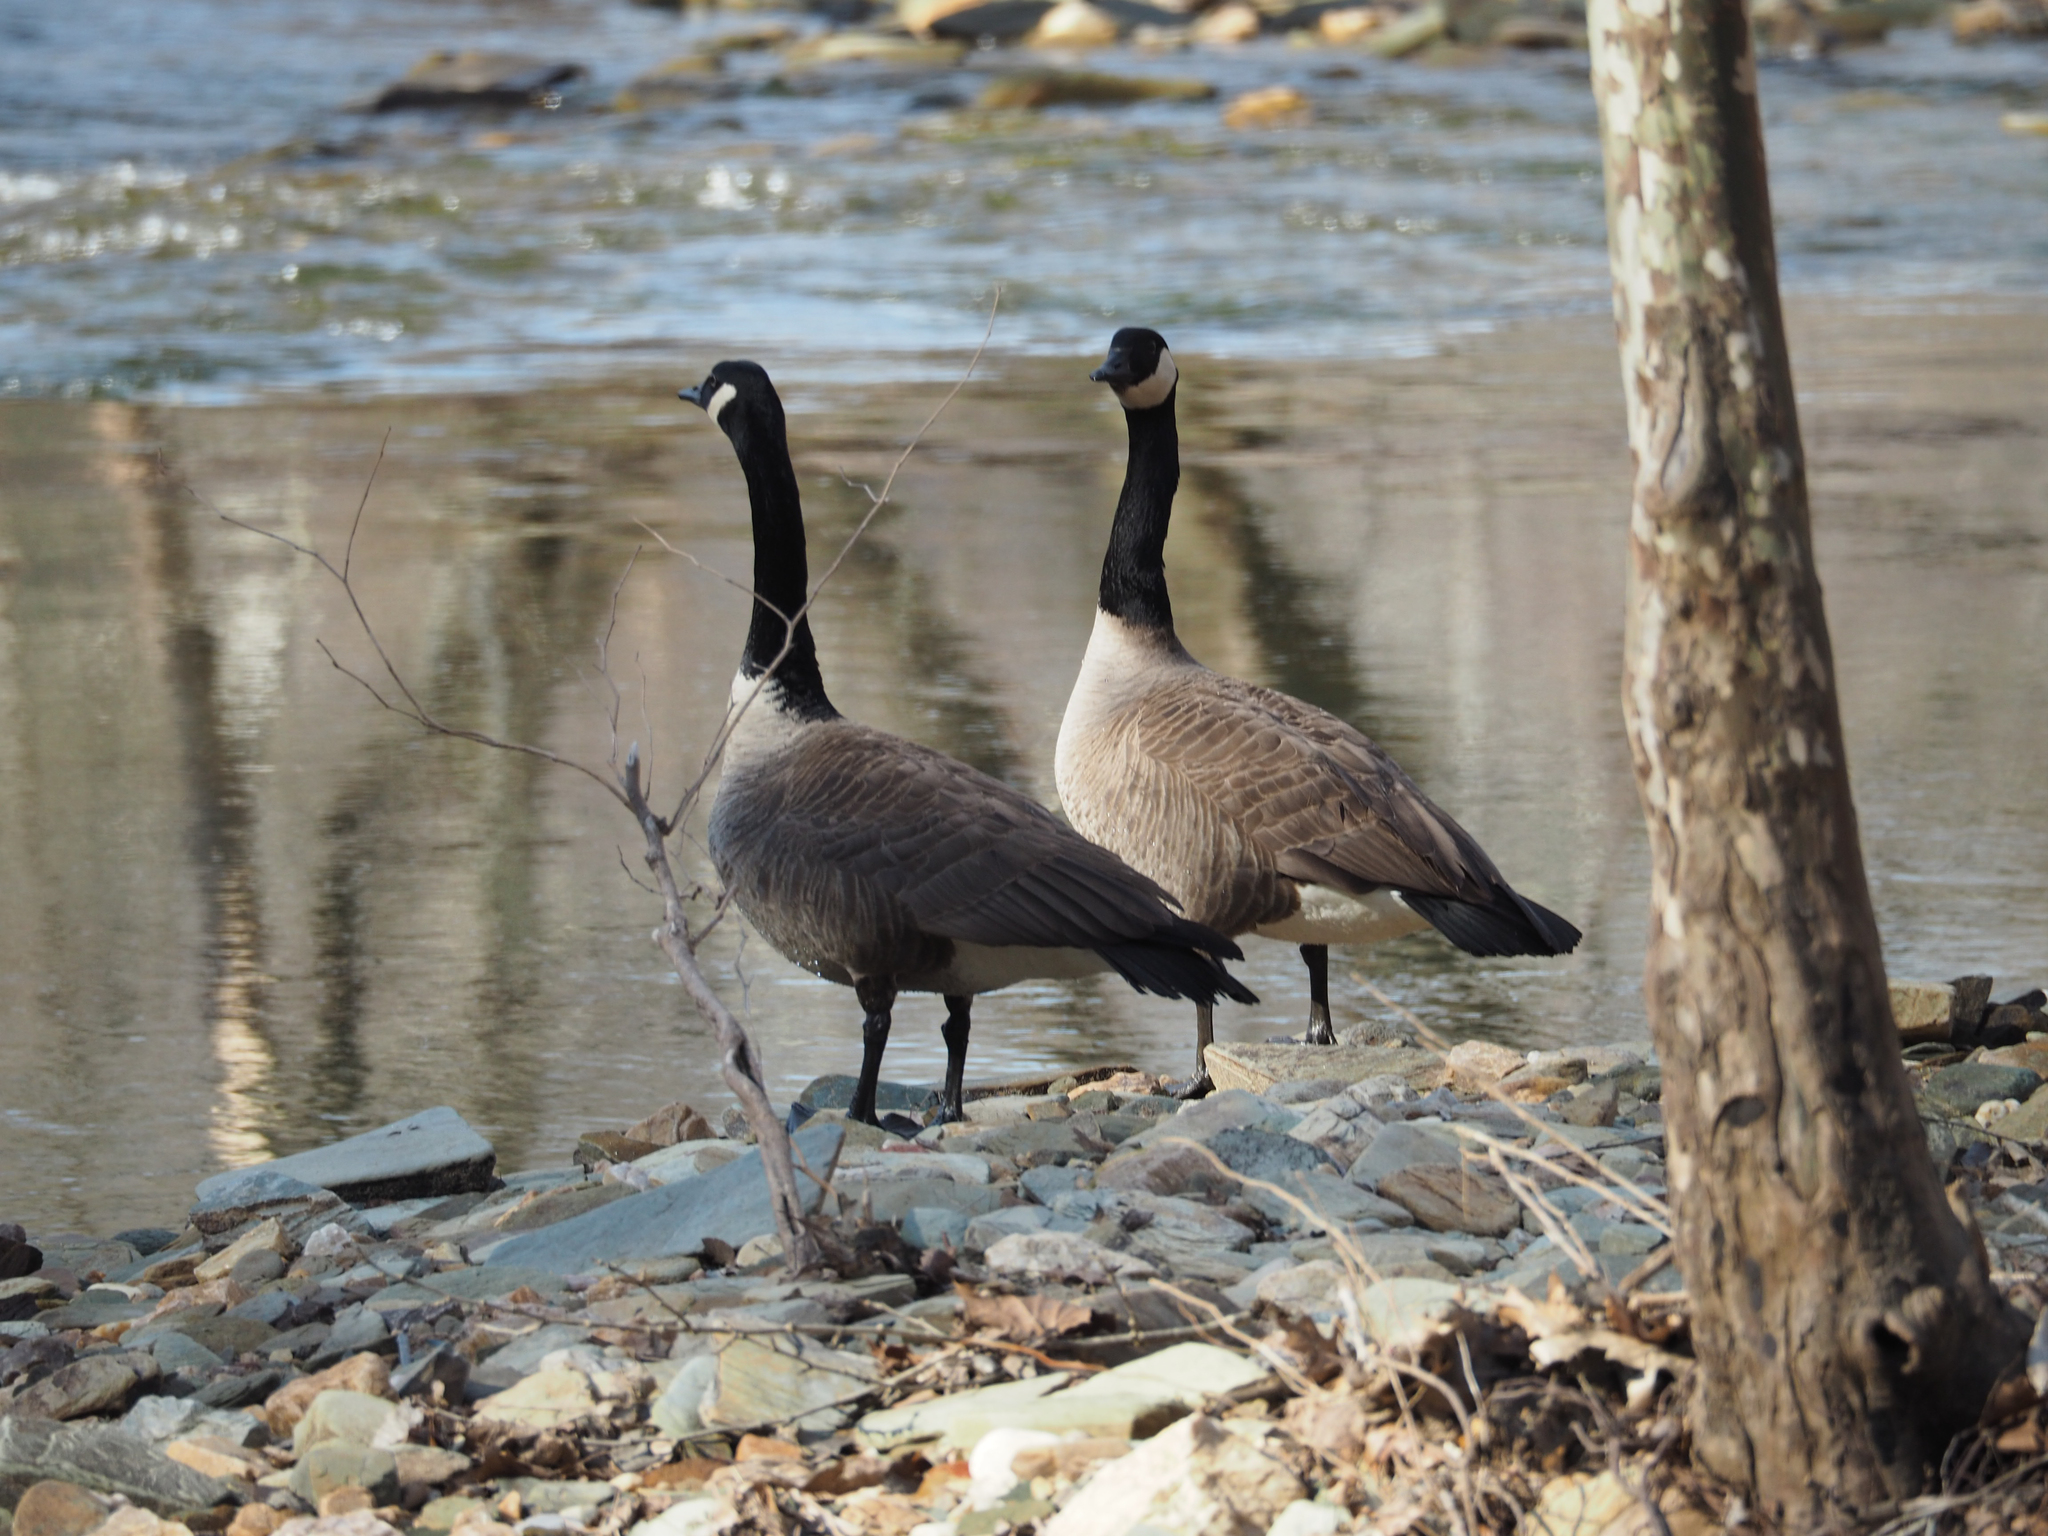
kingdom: Animalia
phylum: Chordata
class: Aves
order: Anseriformes
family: Anatidae
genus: Branta
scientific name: Branta canadensis
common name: Canada goose
